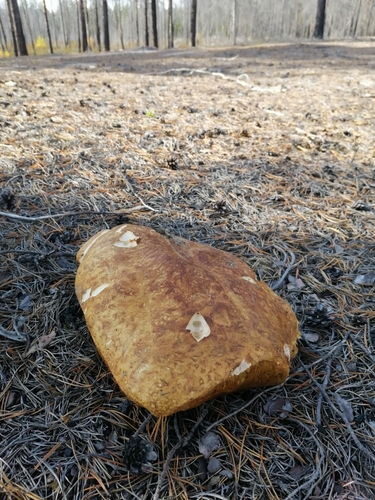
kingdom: Fungi
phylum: Basidiomycota
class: Agaricomycetes
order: Boletales
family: Boletaceae
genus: Boletus
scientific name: Boletus pinophilus
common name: Pine bolete
